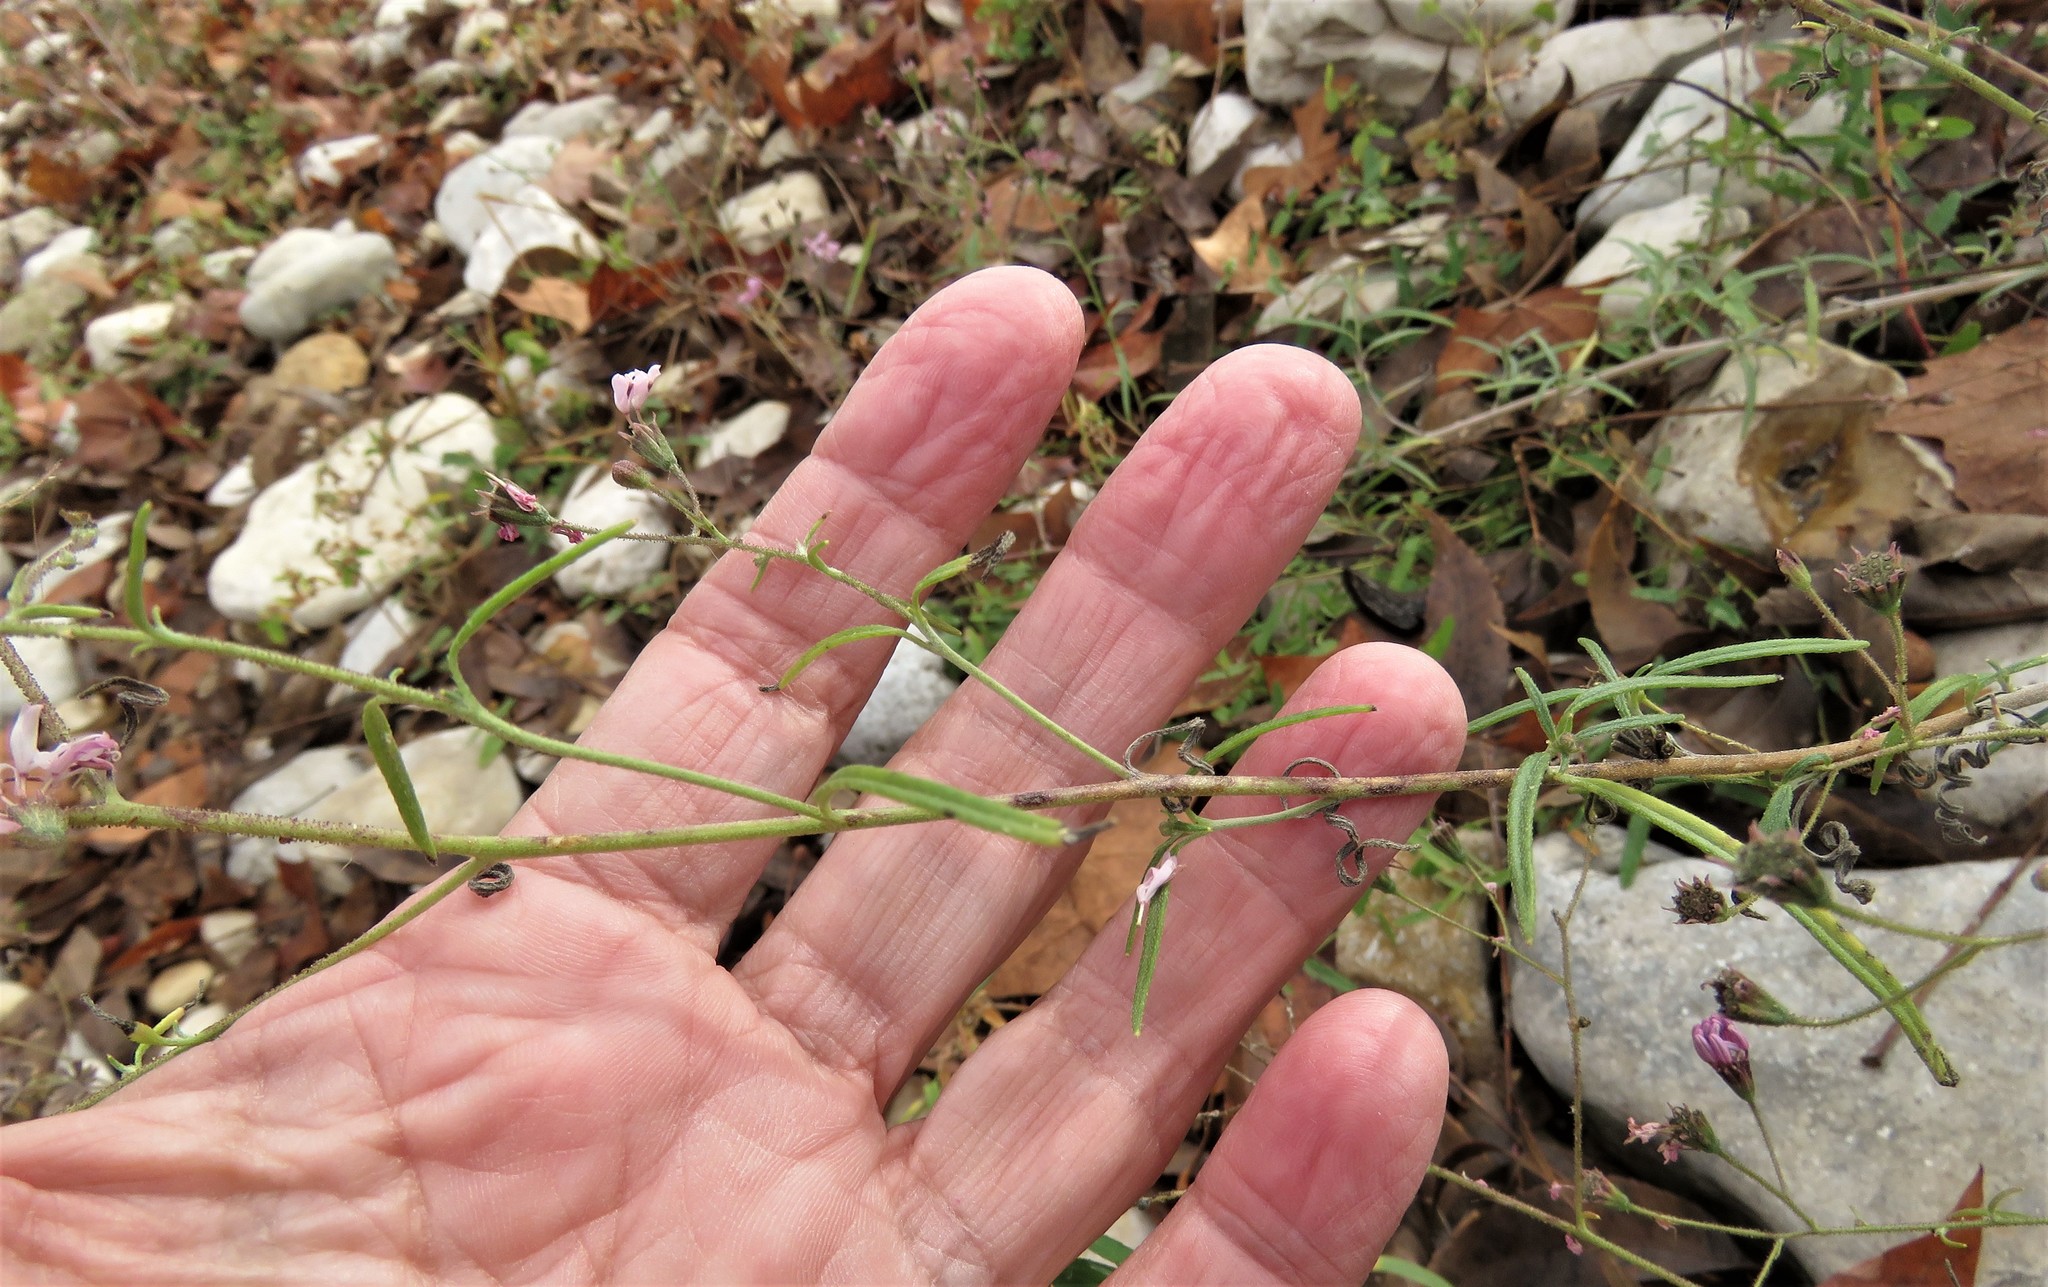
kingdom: Plantae
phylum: Tracheophyta
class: Magnoliopsida
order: Asterales
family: Asteraceae
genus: Palafoxia
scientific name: Palafoxia callosa
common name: Small palafox
